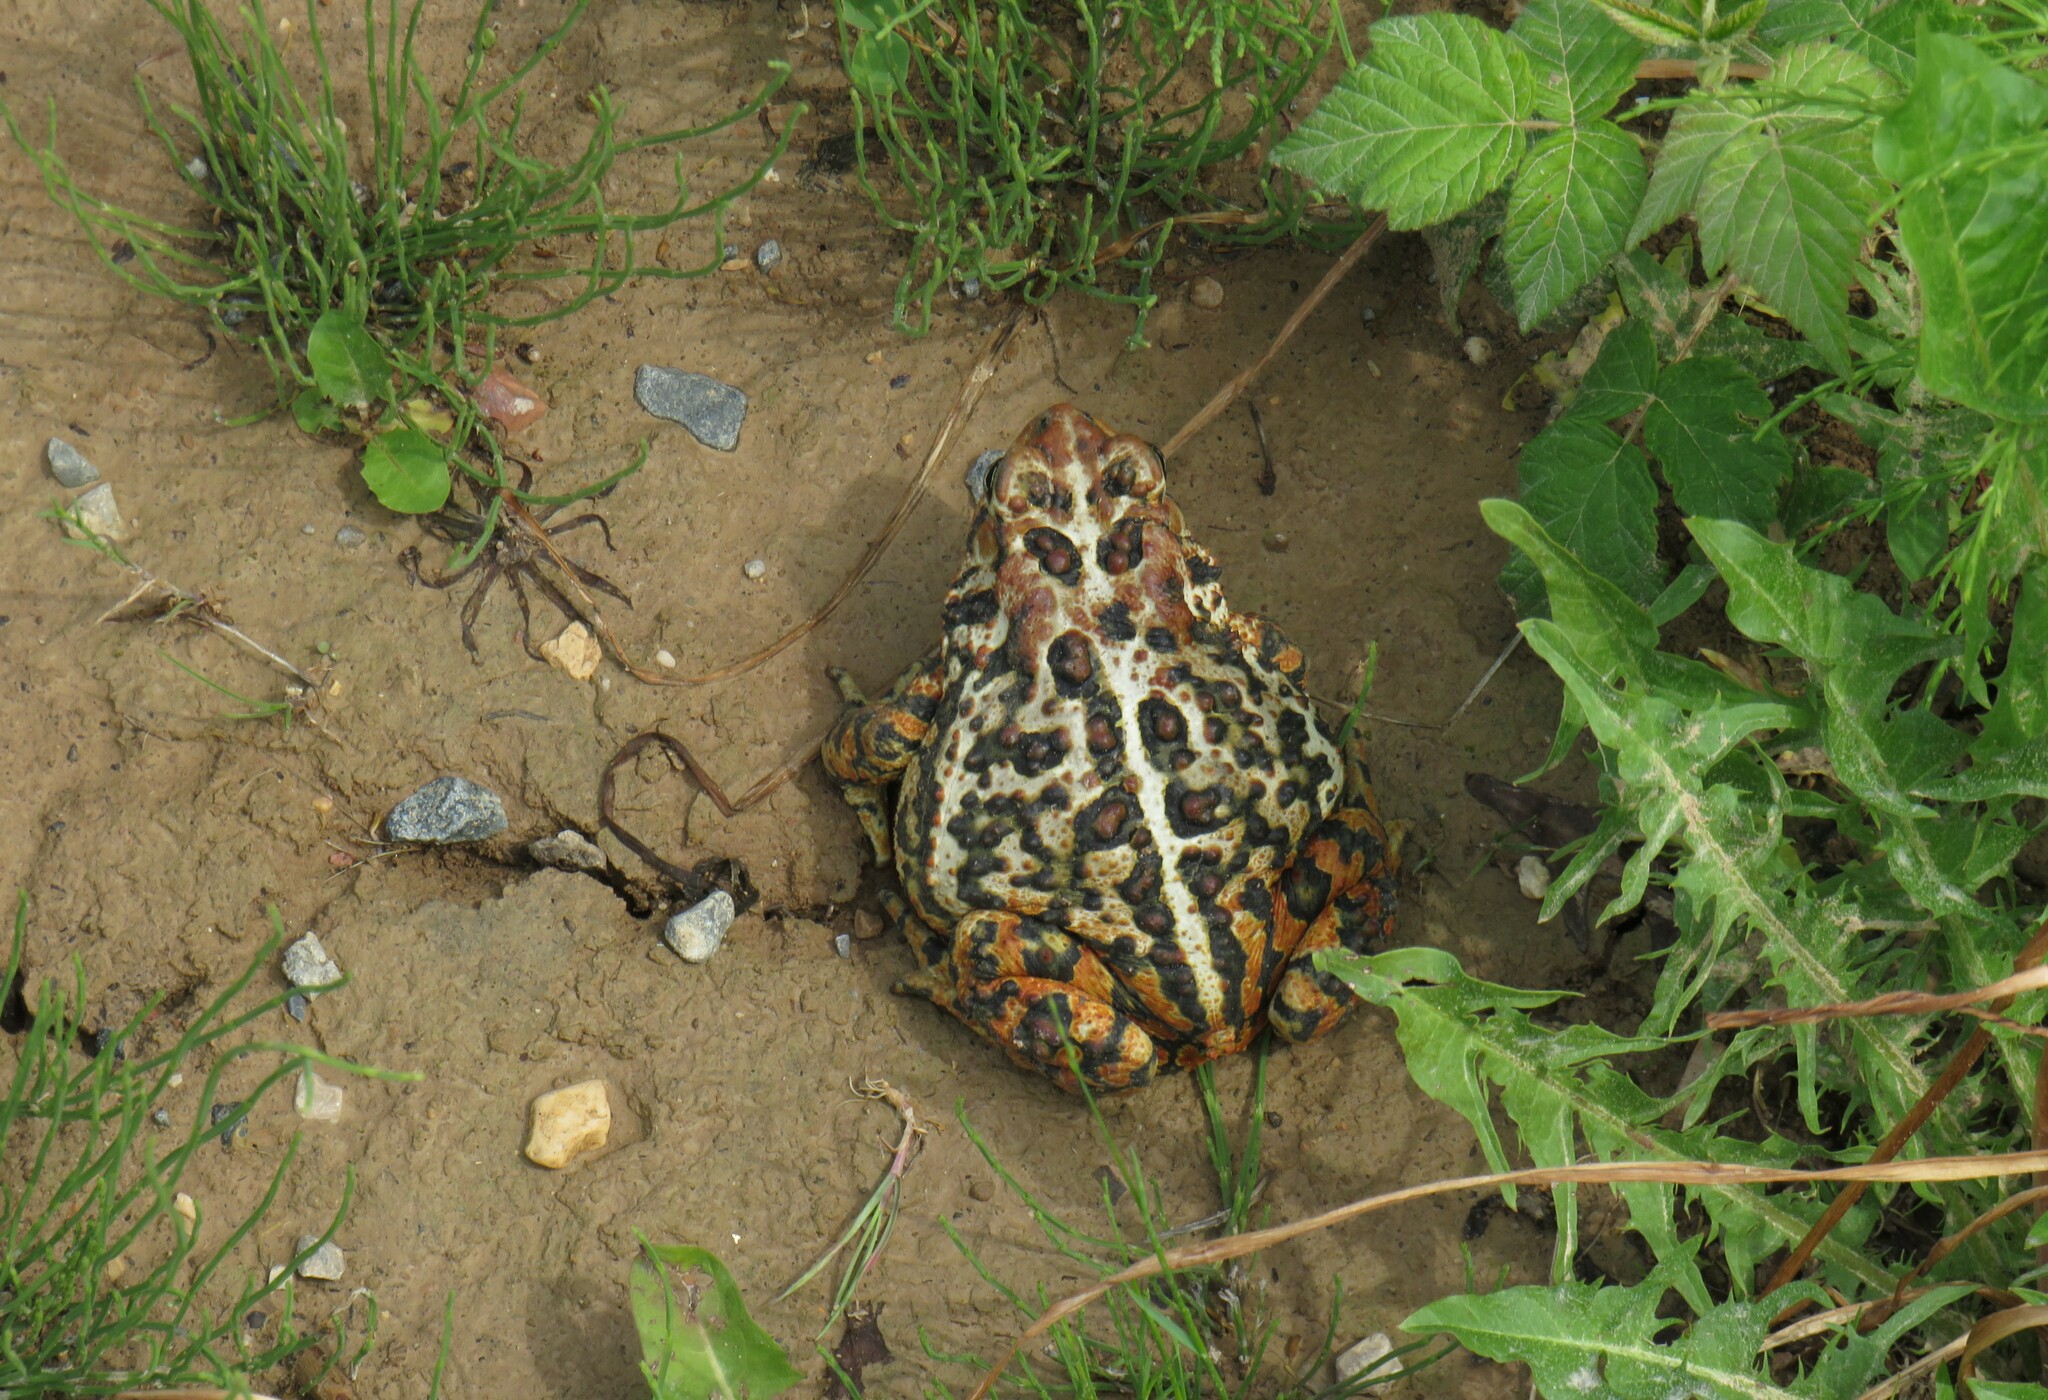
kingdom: Animalia
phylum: Chordata
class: Amphibia
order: Anura
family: Bufonidae
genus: Anaxyrus
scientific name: Anaxyrus americanus
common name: American toad
